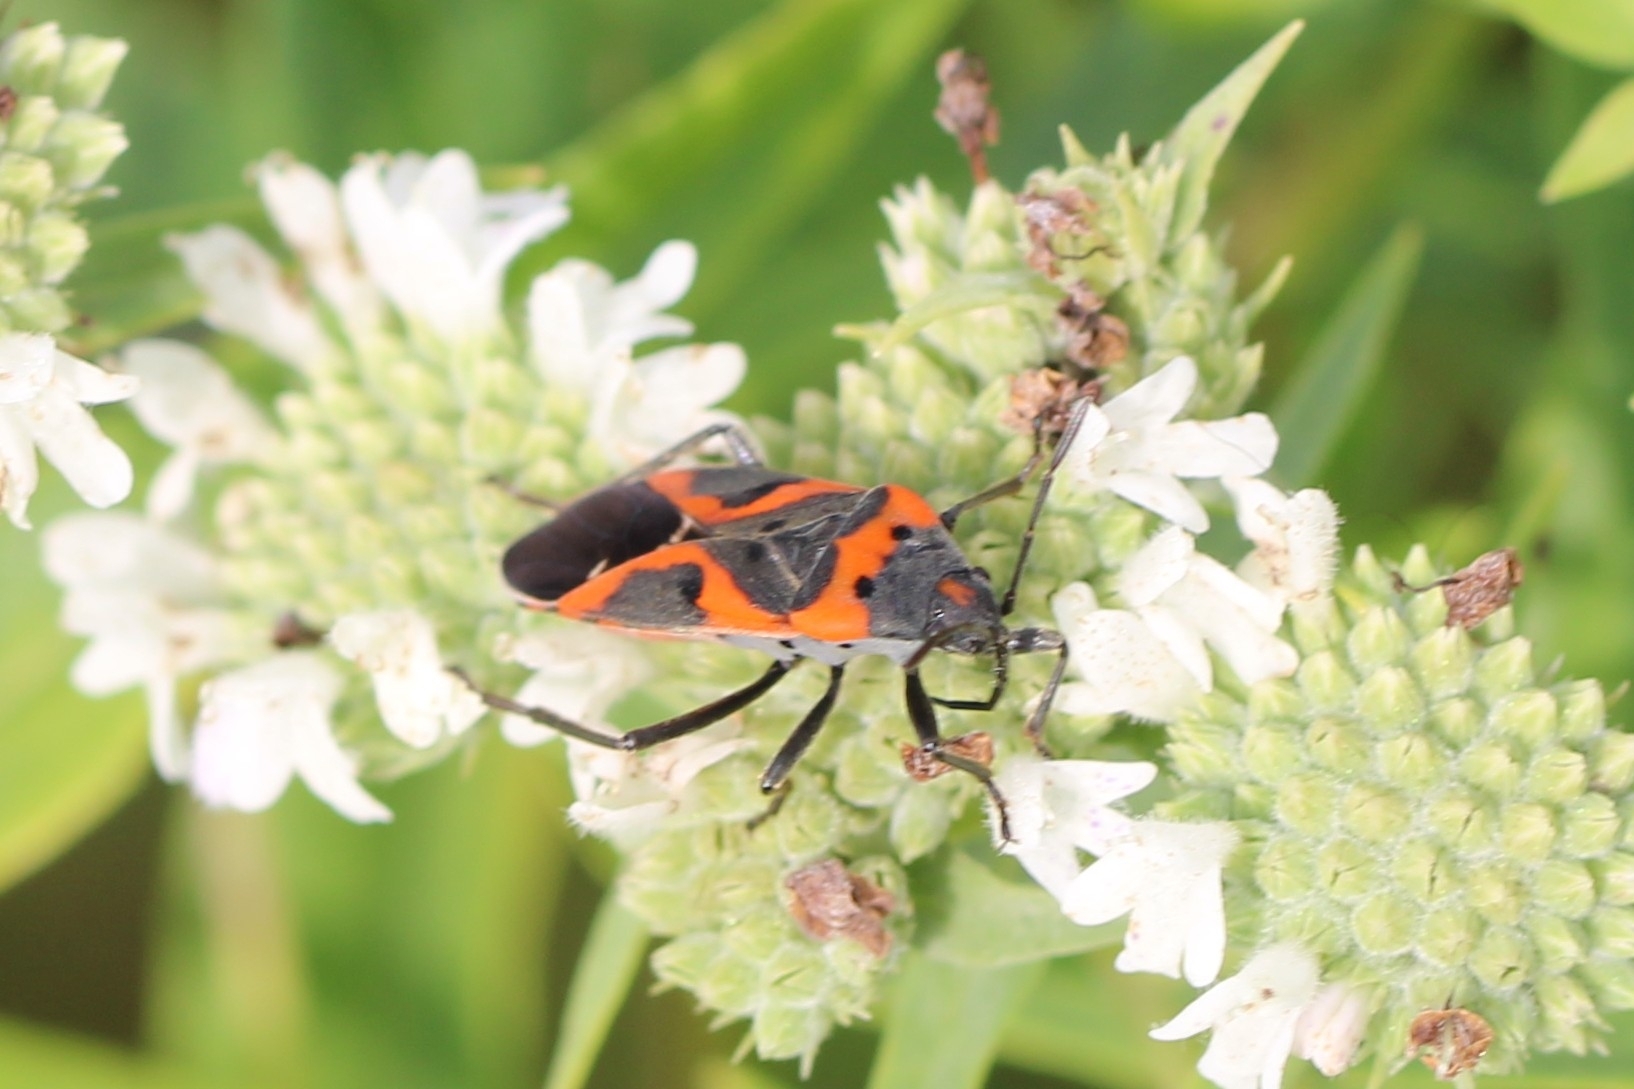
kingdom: Animalia
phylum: Arthropoda
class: Insecta
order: Hemiptera
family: Lygaeidae
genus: Lygaeus
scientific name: Lygaeus kalmii
